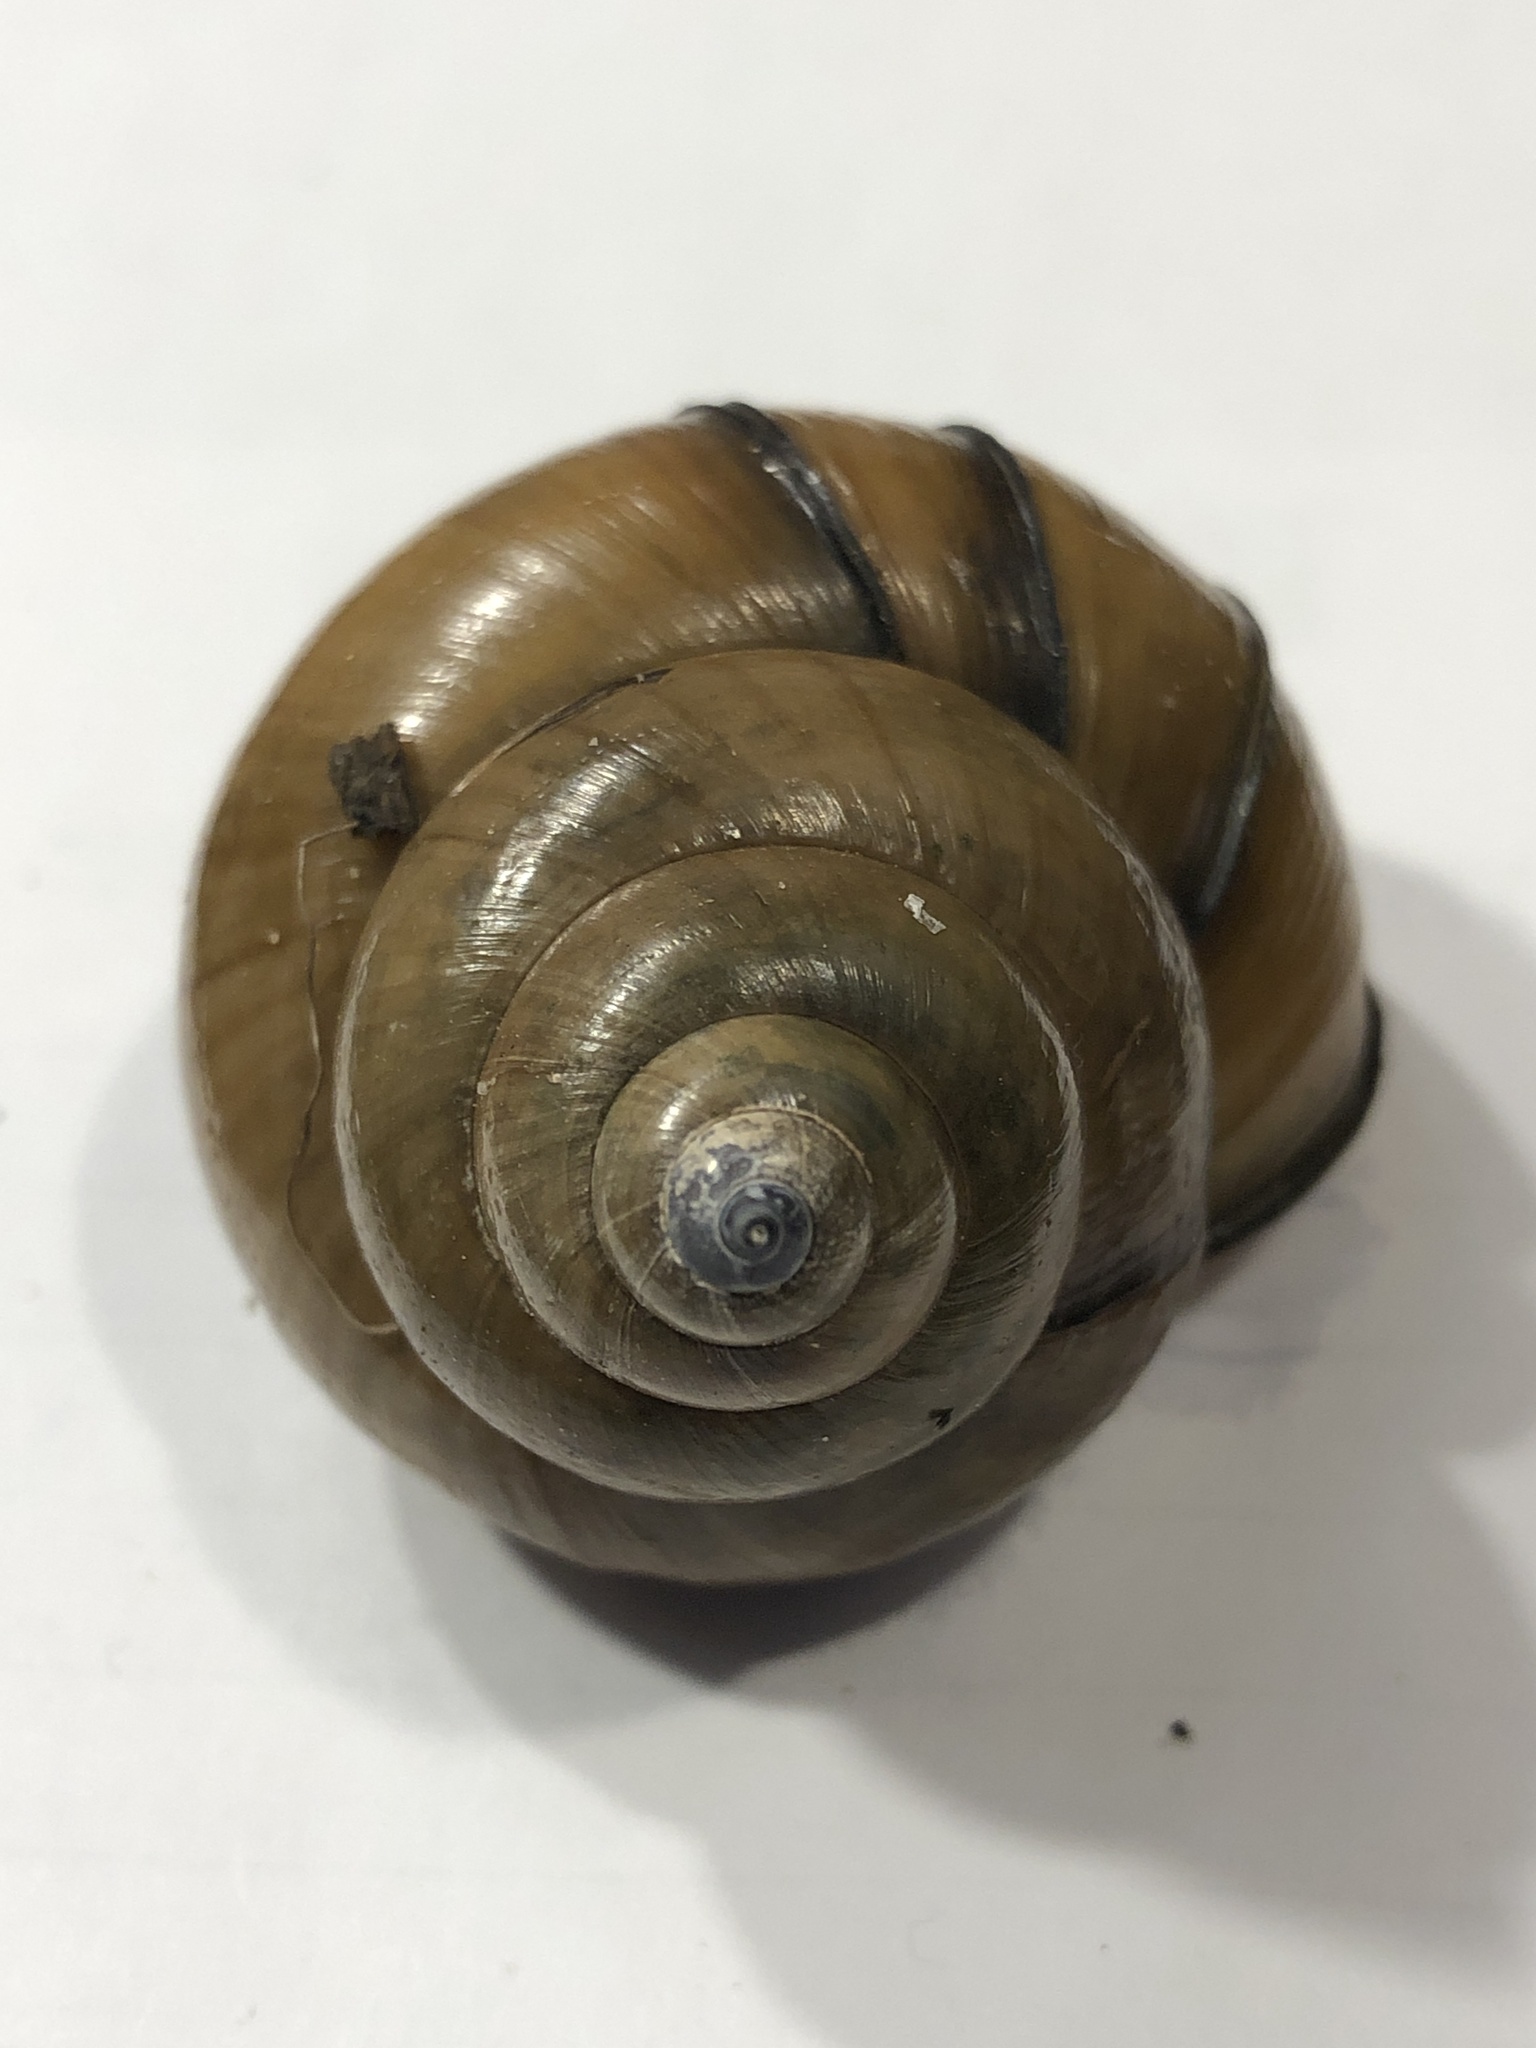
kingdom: Animalia
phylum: Mollusca
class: Gastropoda
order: Architaenioglossa
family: Viviparidae
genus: Cipangopaludina
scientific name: Cipangopaludina chinensis
